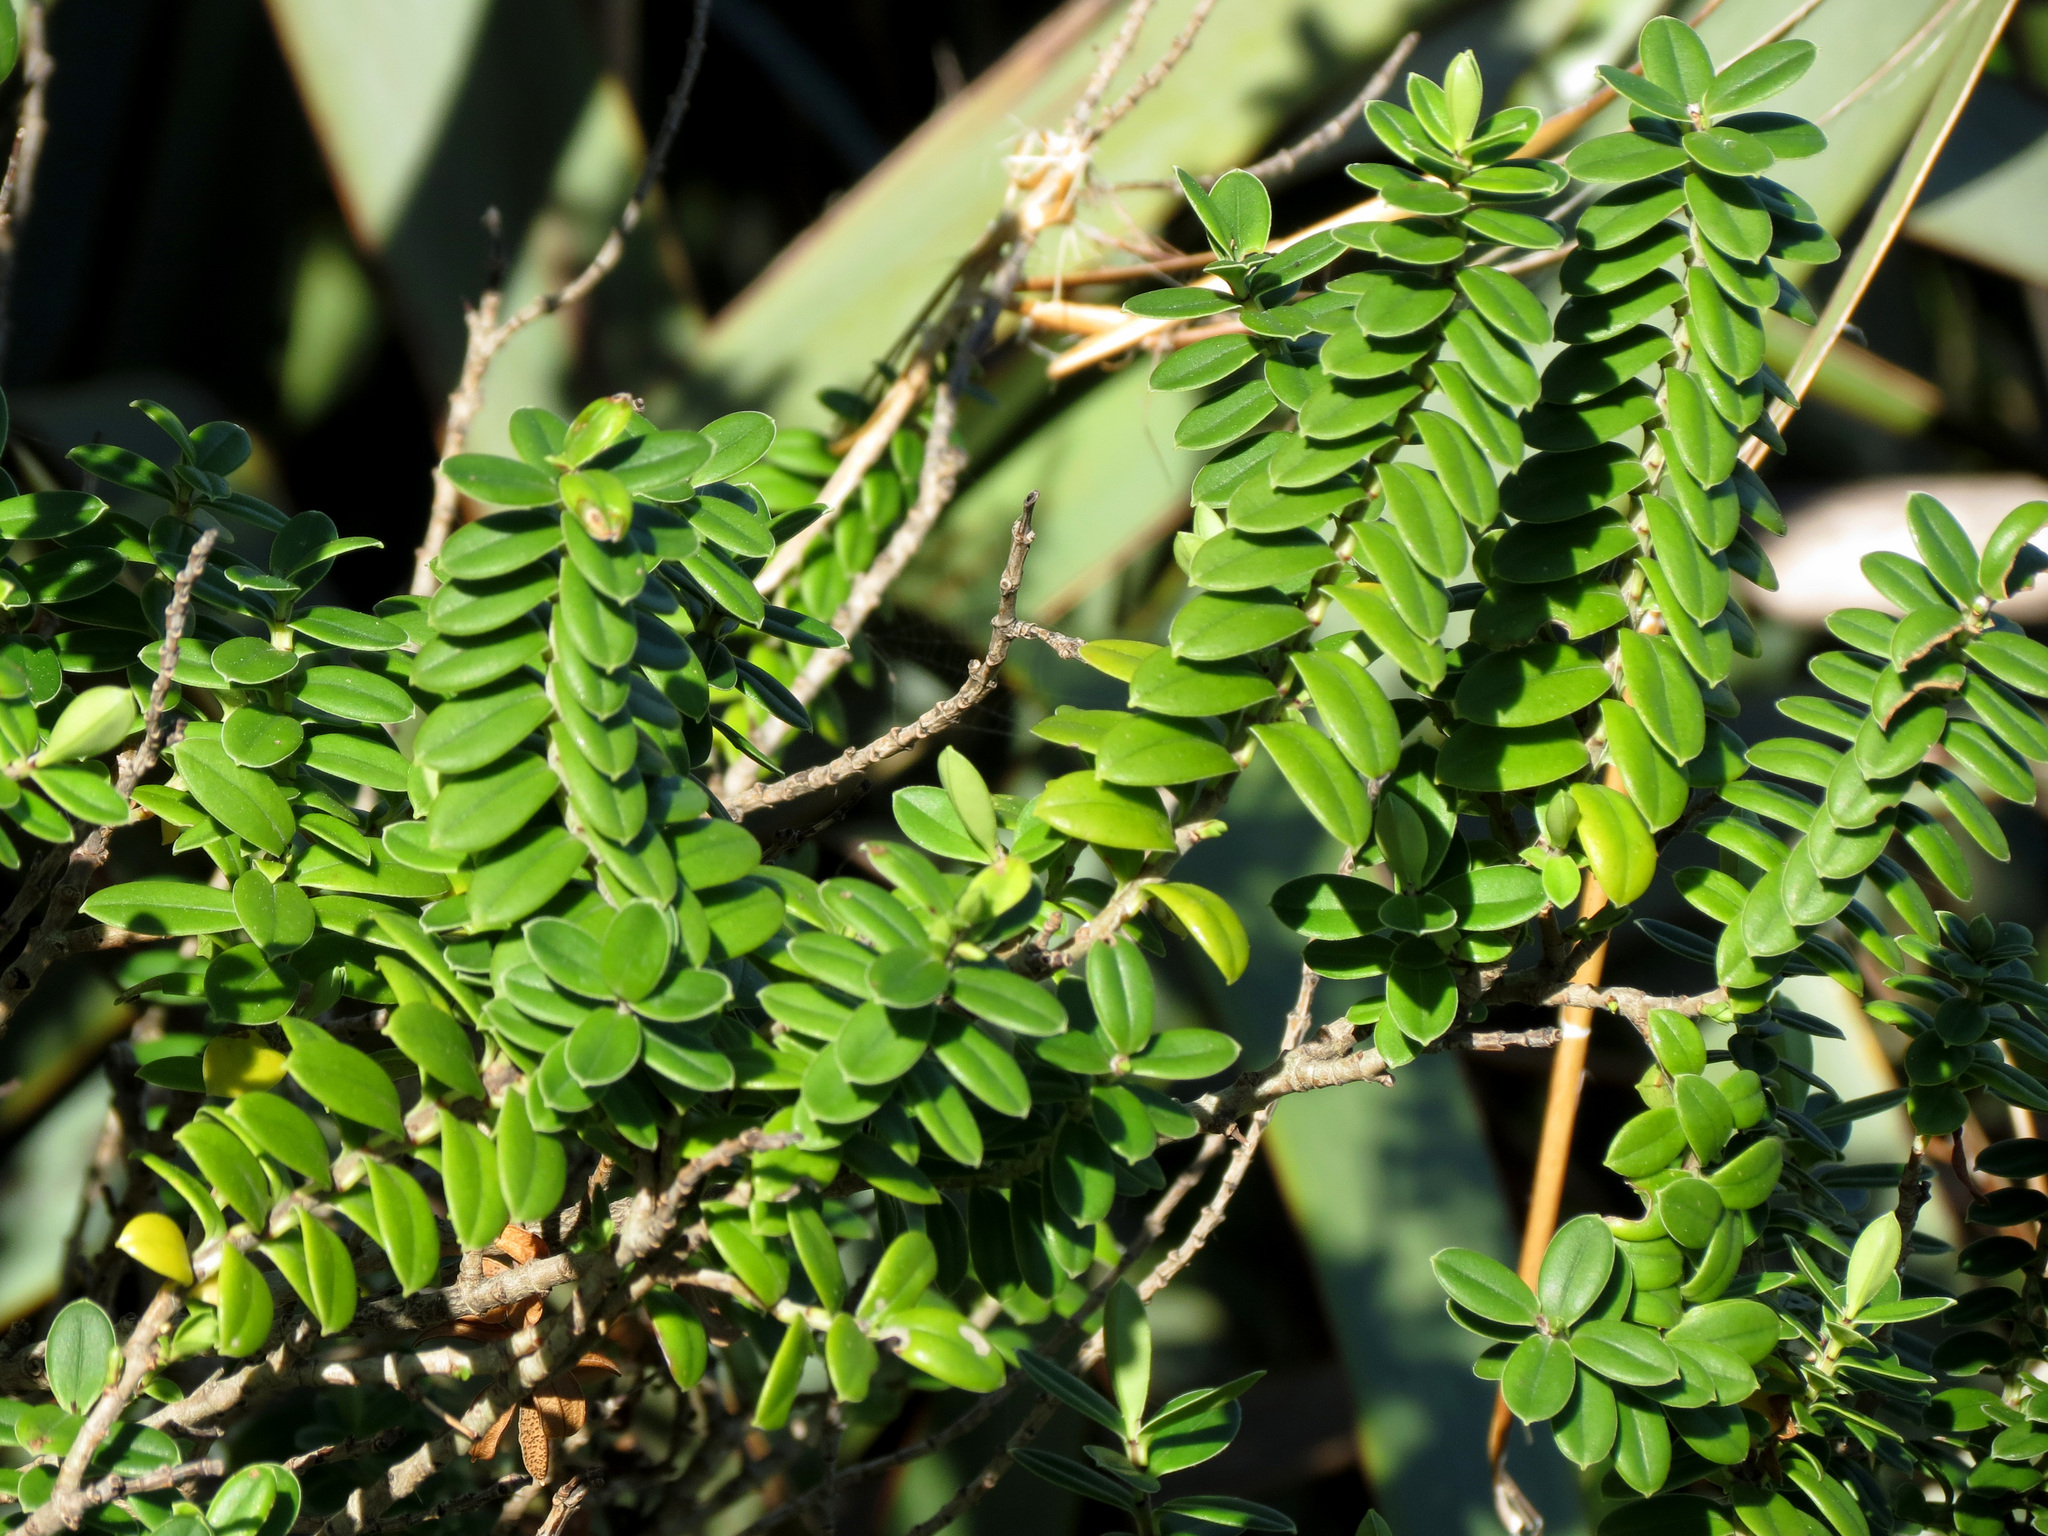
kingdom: Plantae
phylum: Tracheophyta
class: Magnoliopsida
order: Lamiales
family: Plantaginaceae
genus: Veronica
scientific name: Veronica elliptica
